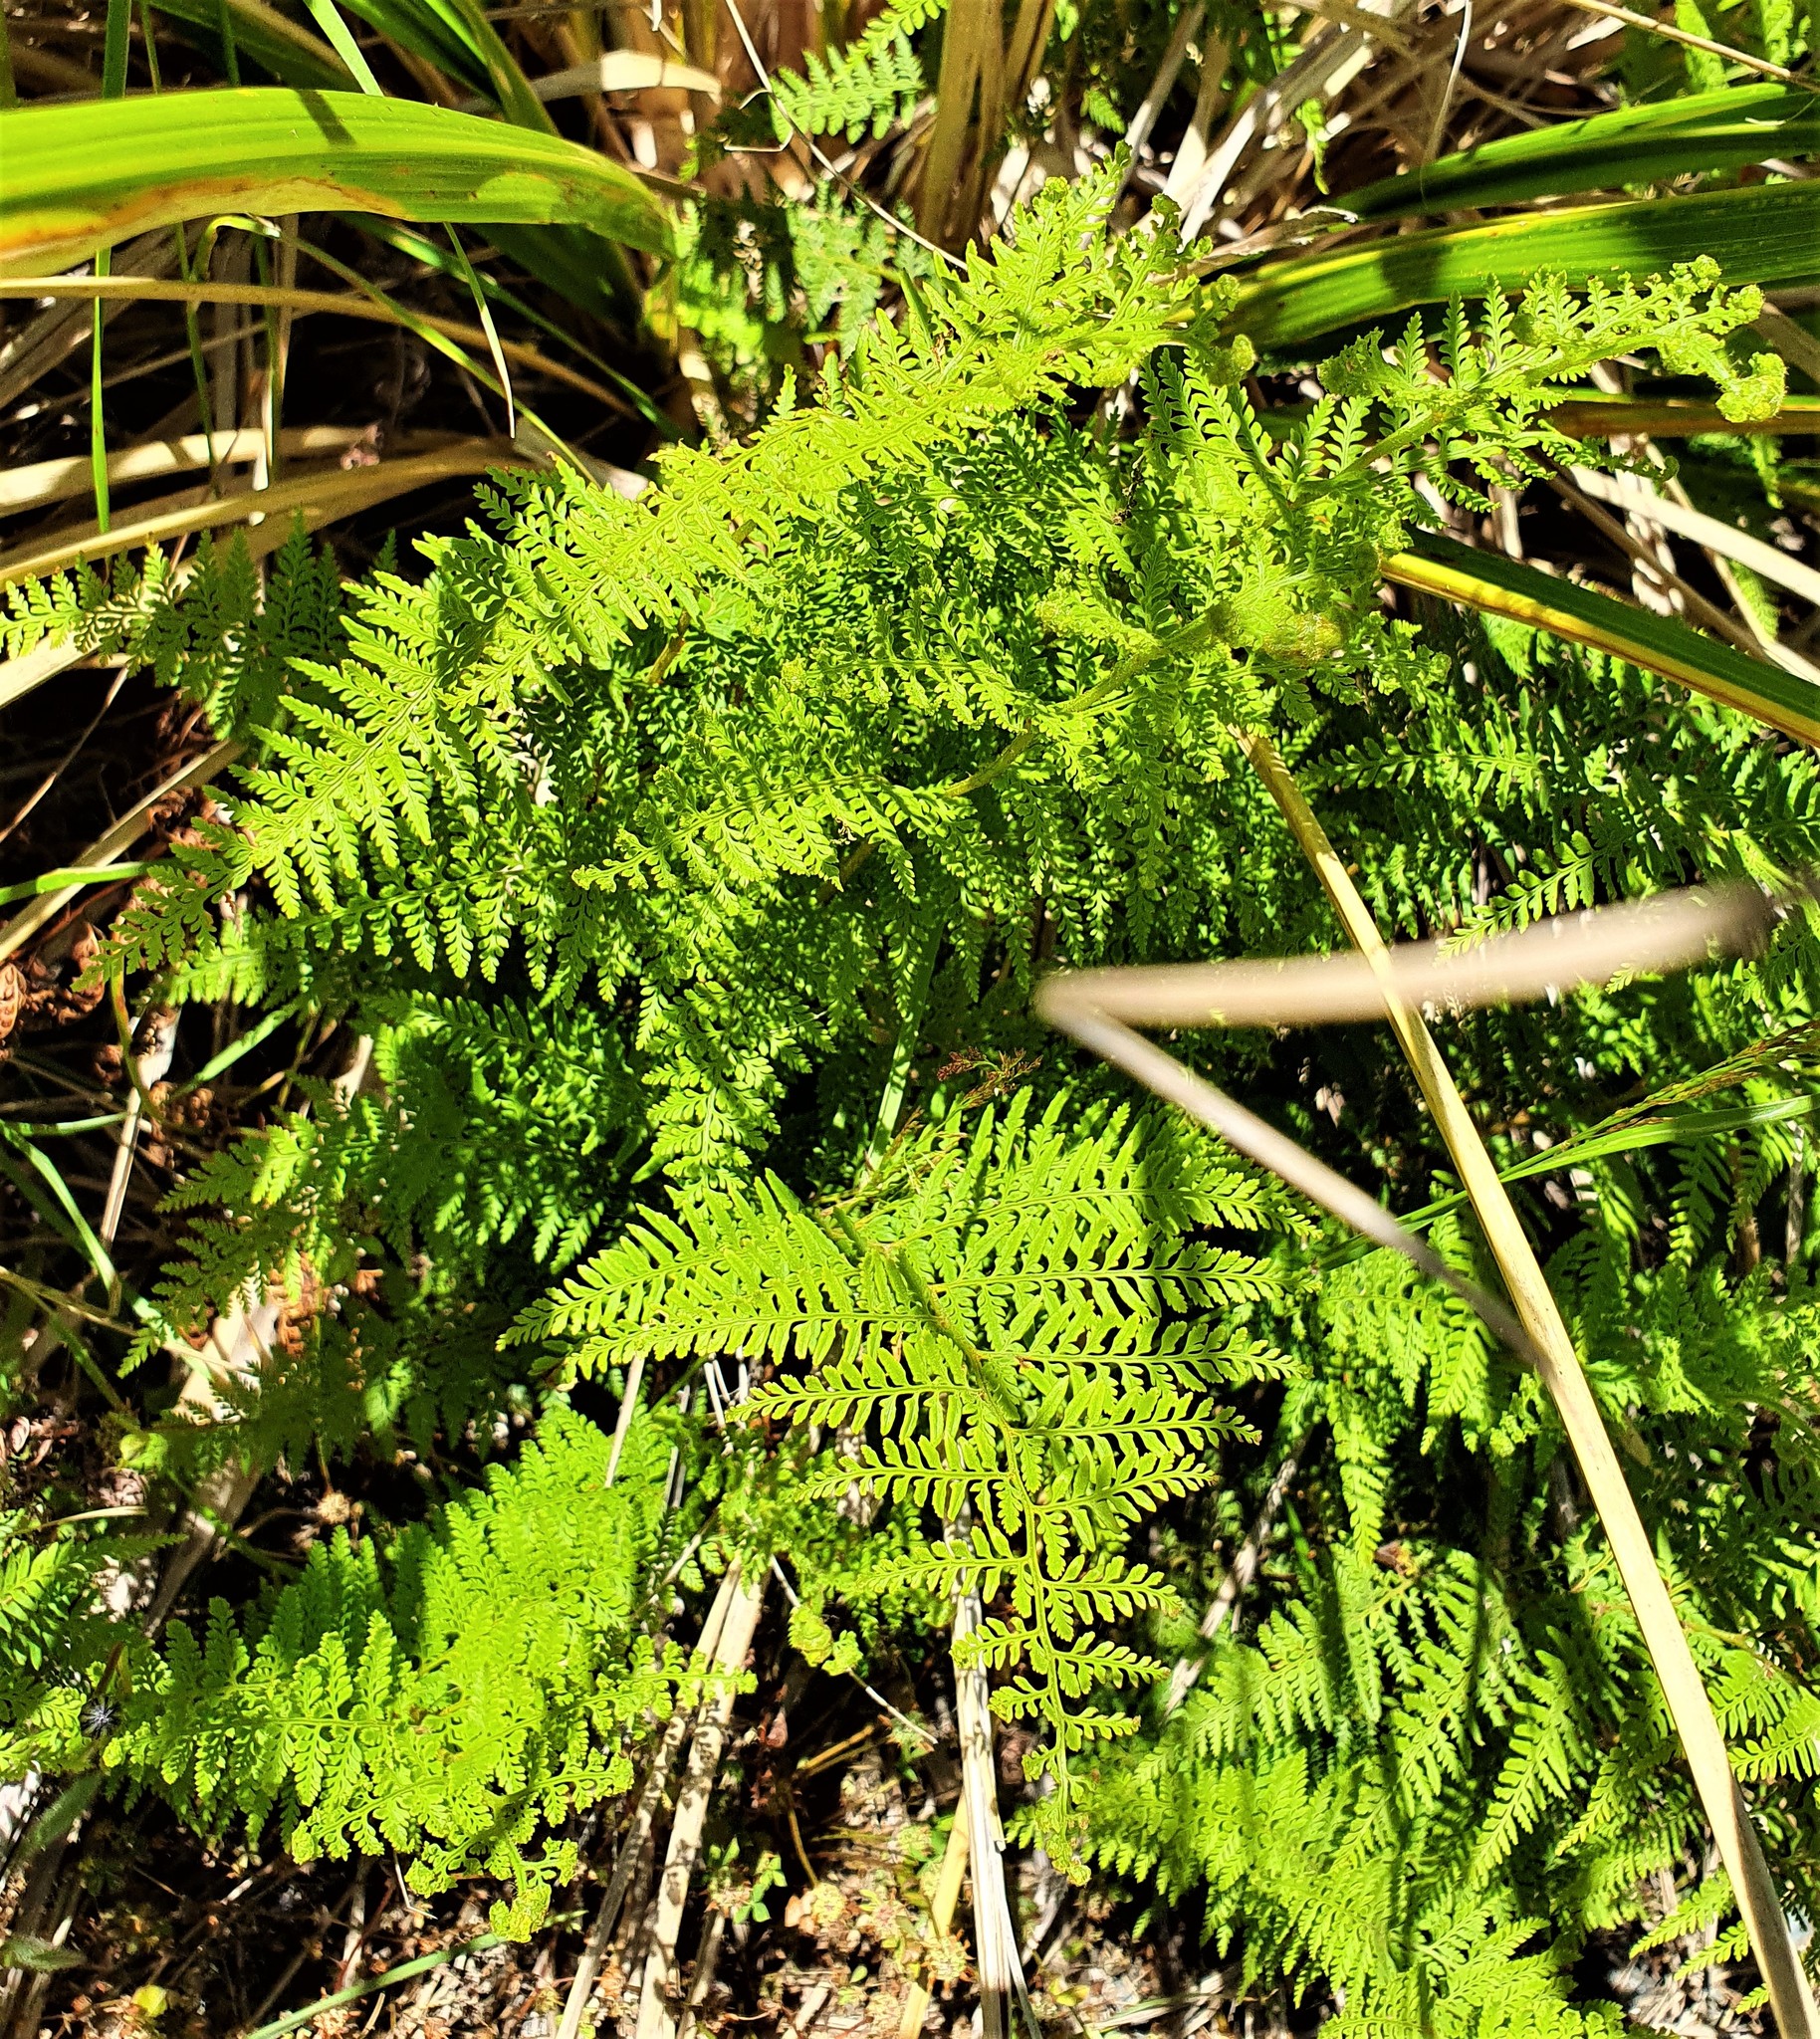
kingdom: Plantae
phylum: Tracheophyta
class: Polypodiopsida
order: Polypodiales
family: Dennstaedtiaceae
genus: Paesia
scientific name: Paesia scaberula
